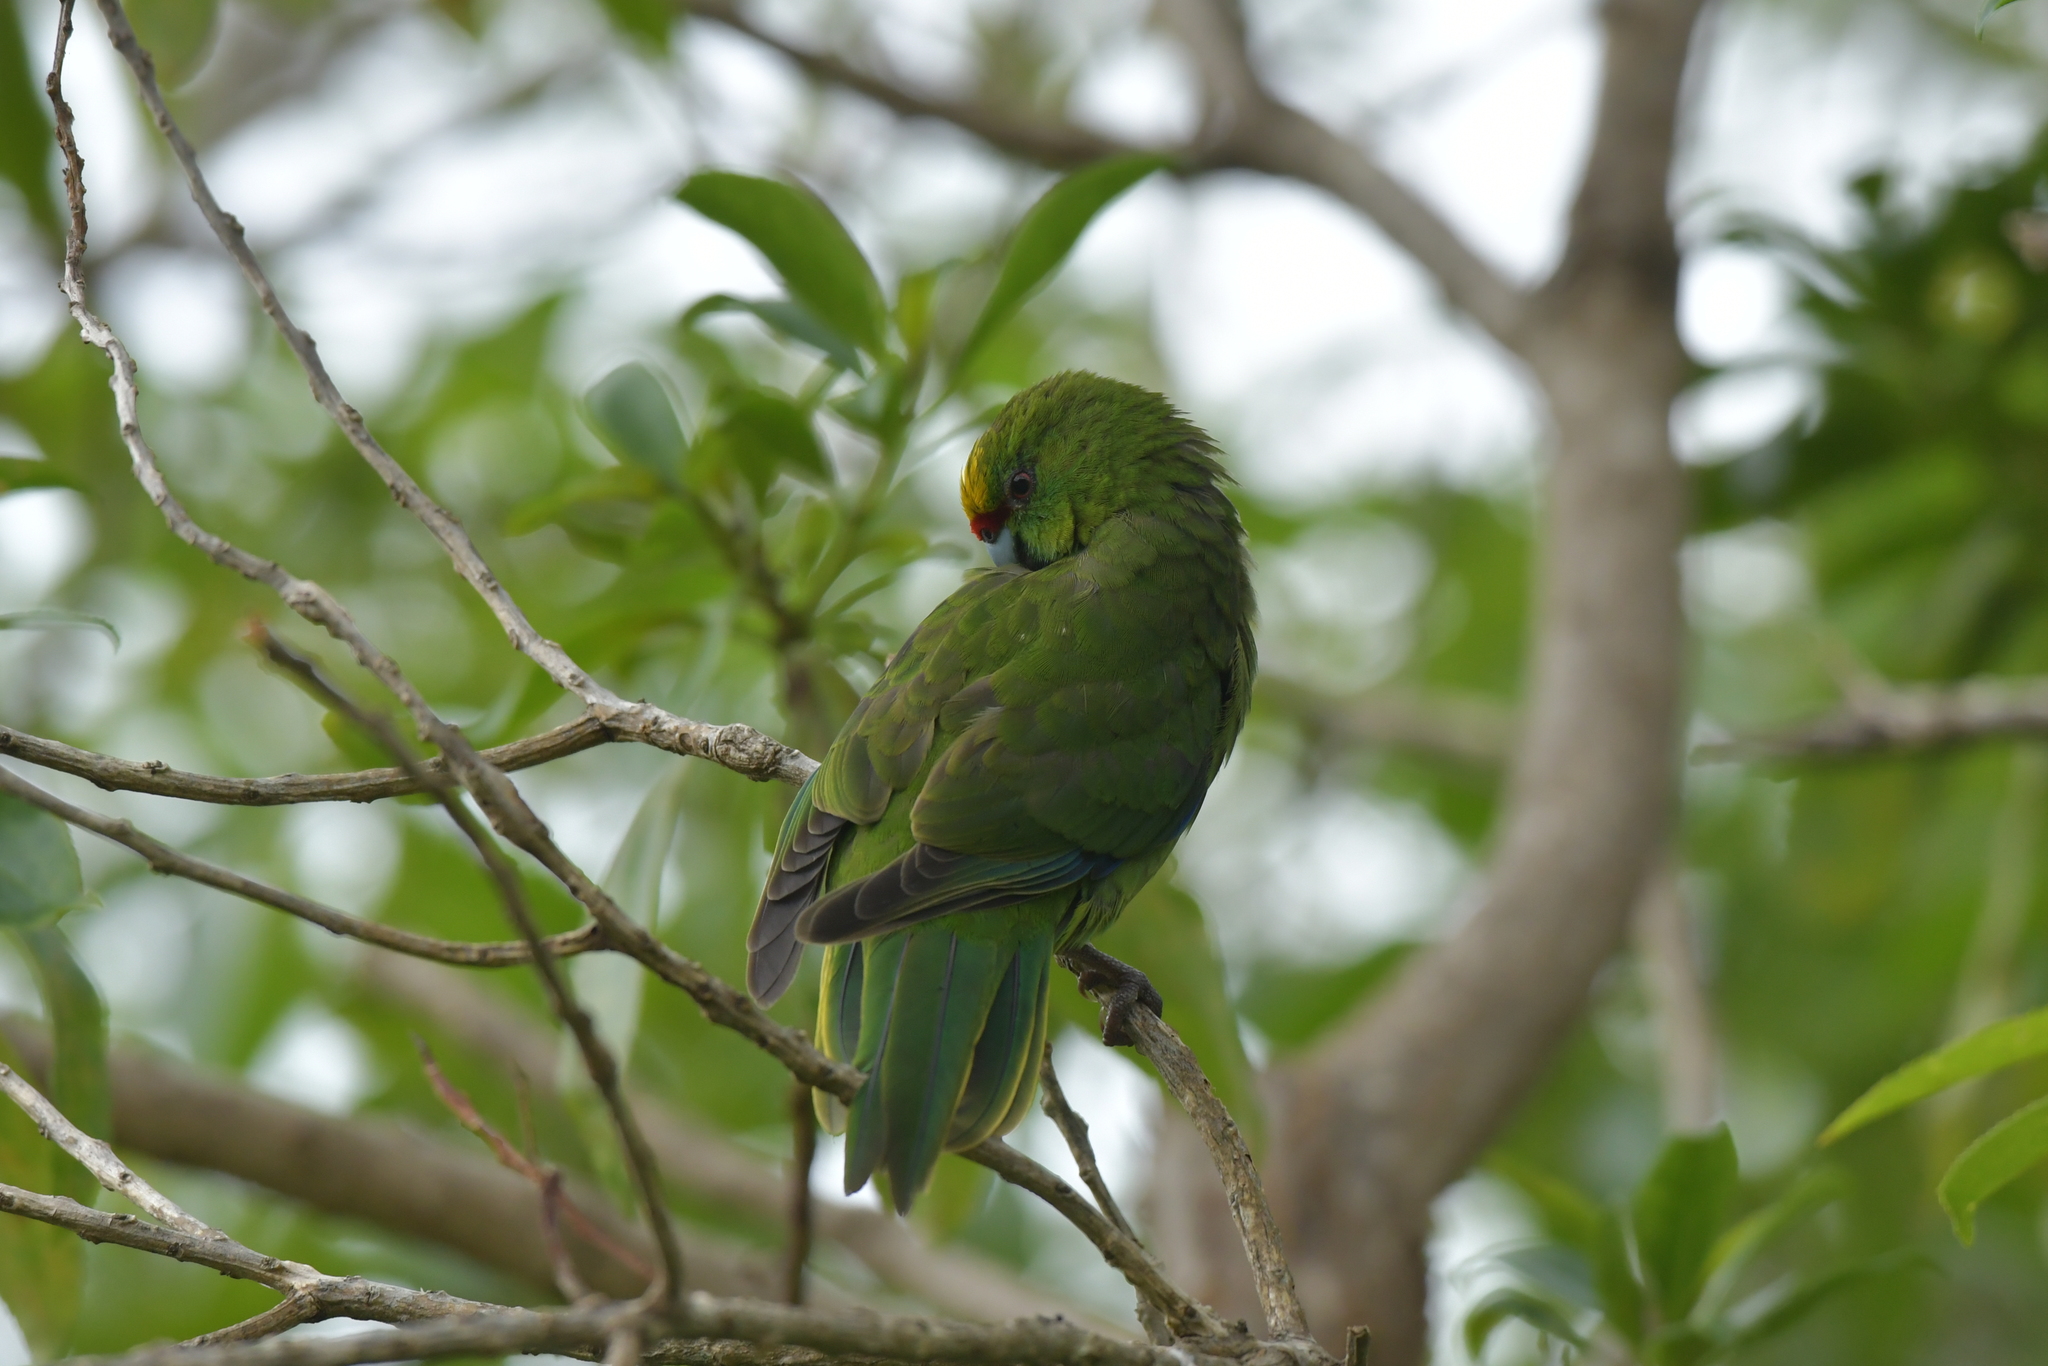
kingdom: Animalia
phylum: Chordata
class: Aves
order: Psittaciformes
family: Psittacidae
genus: Cyanoramphus
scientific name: Cyanoramphus auriceps
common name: Yellow-crowned parakeet
